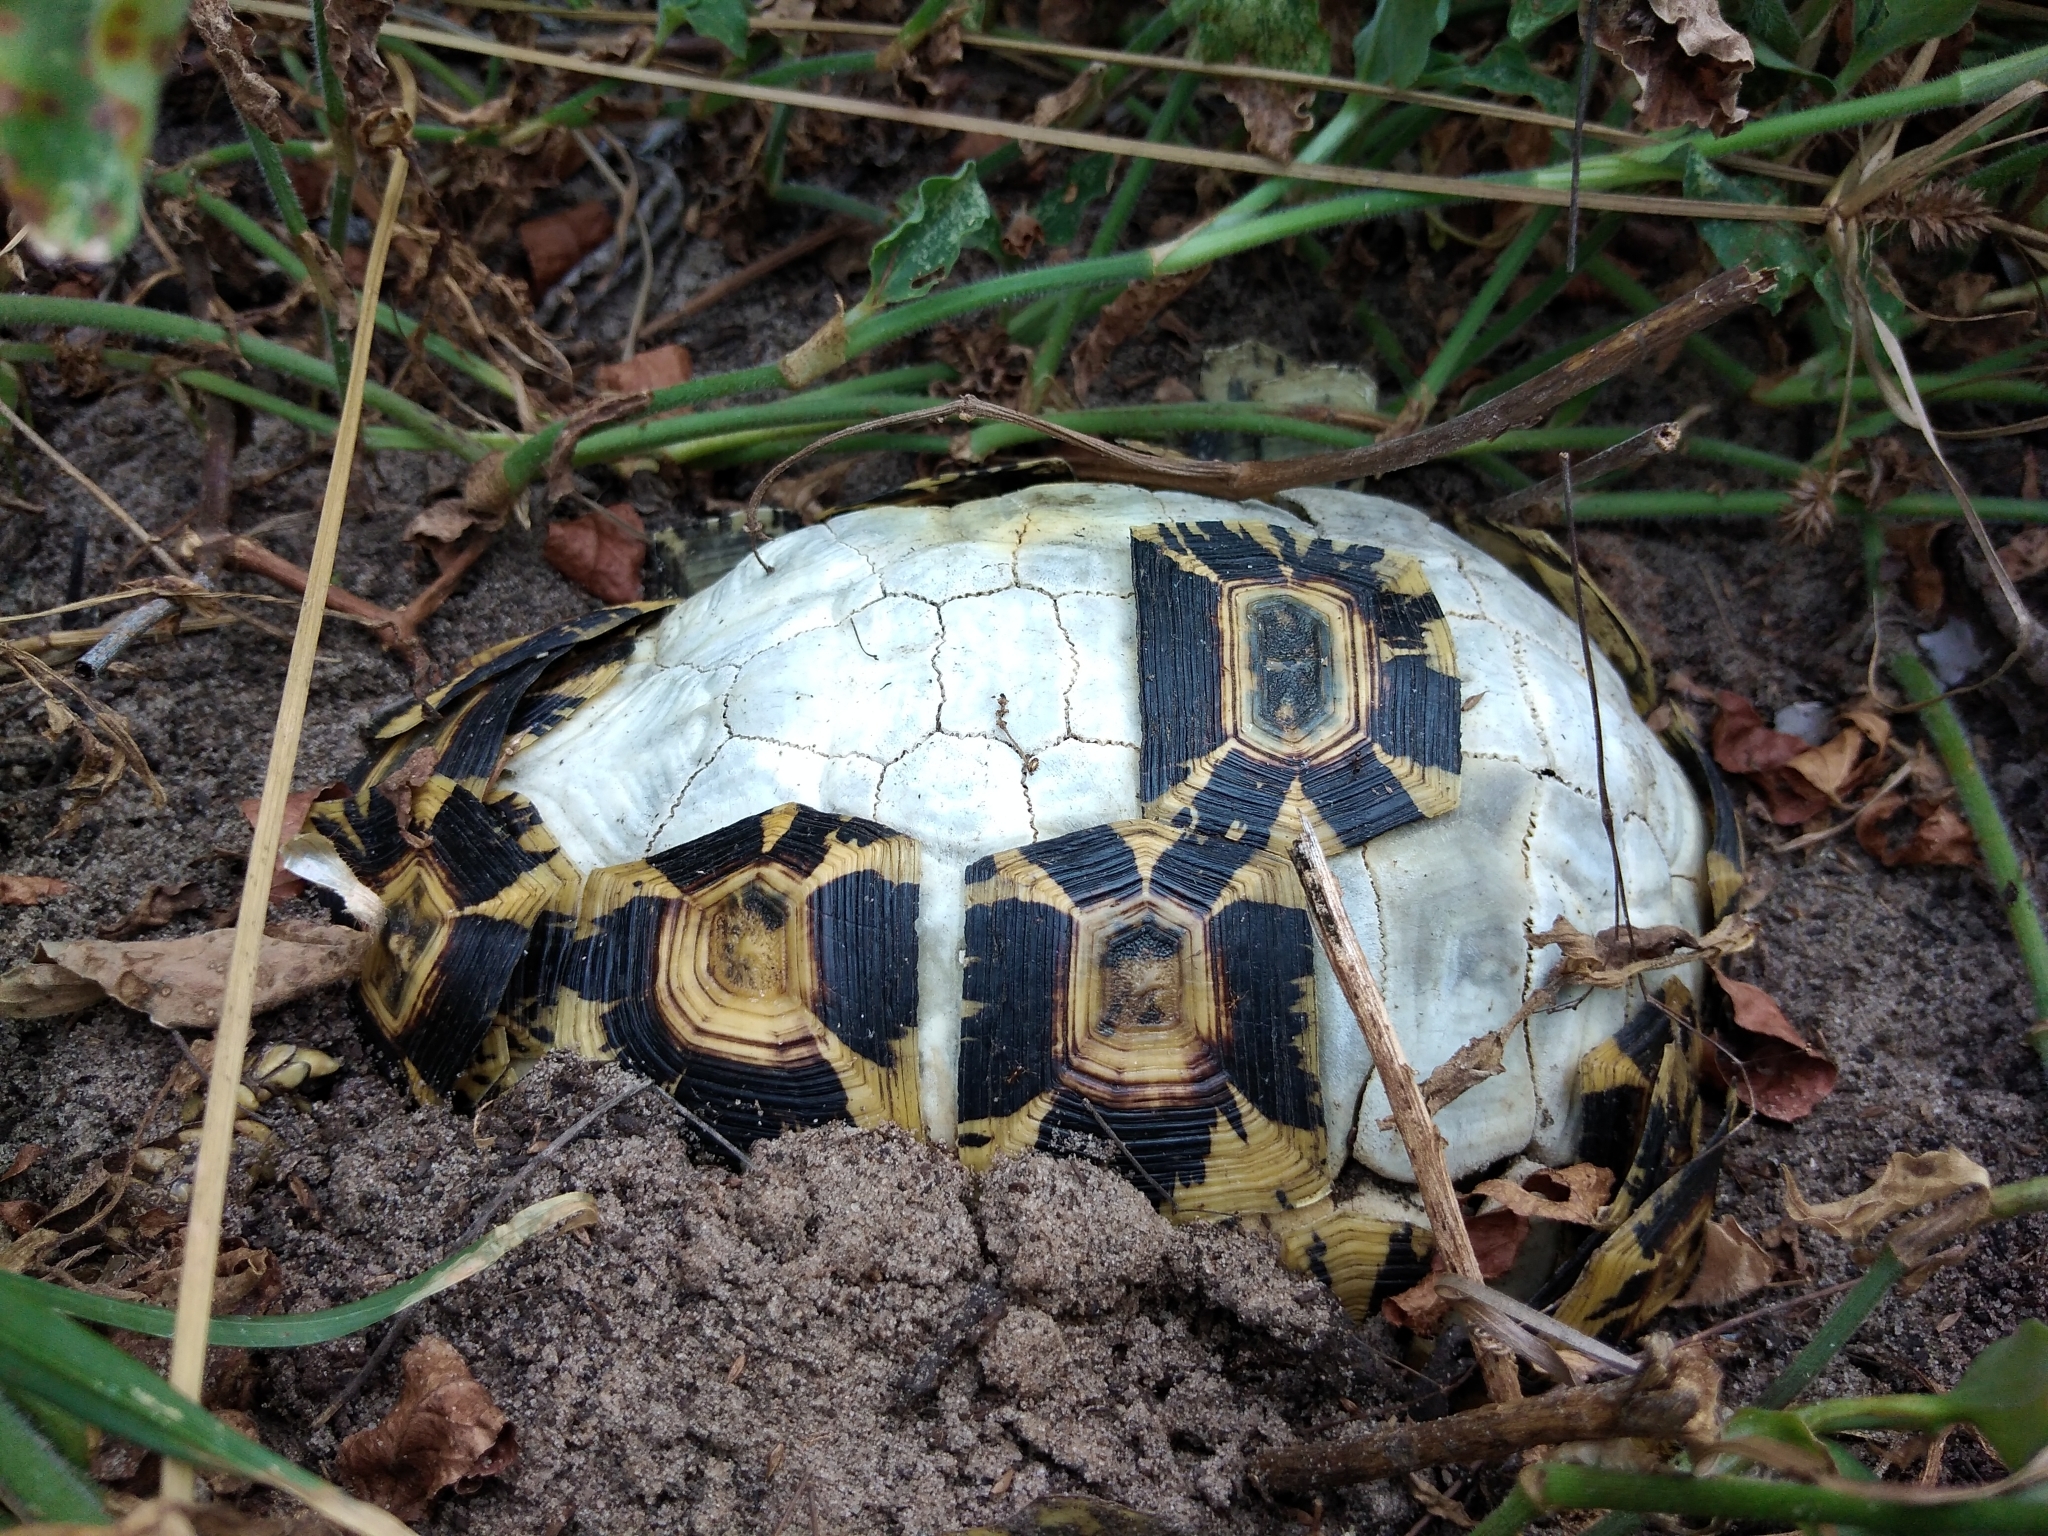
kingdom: Animalia
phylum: Chordata
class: Testudines
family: Testudinidae
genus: Kinixys
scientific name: Kinixys zombensis
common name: Southeastern hinge-back tortoise
